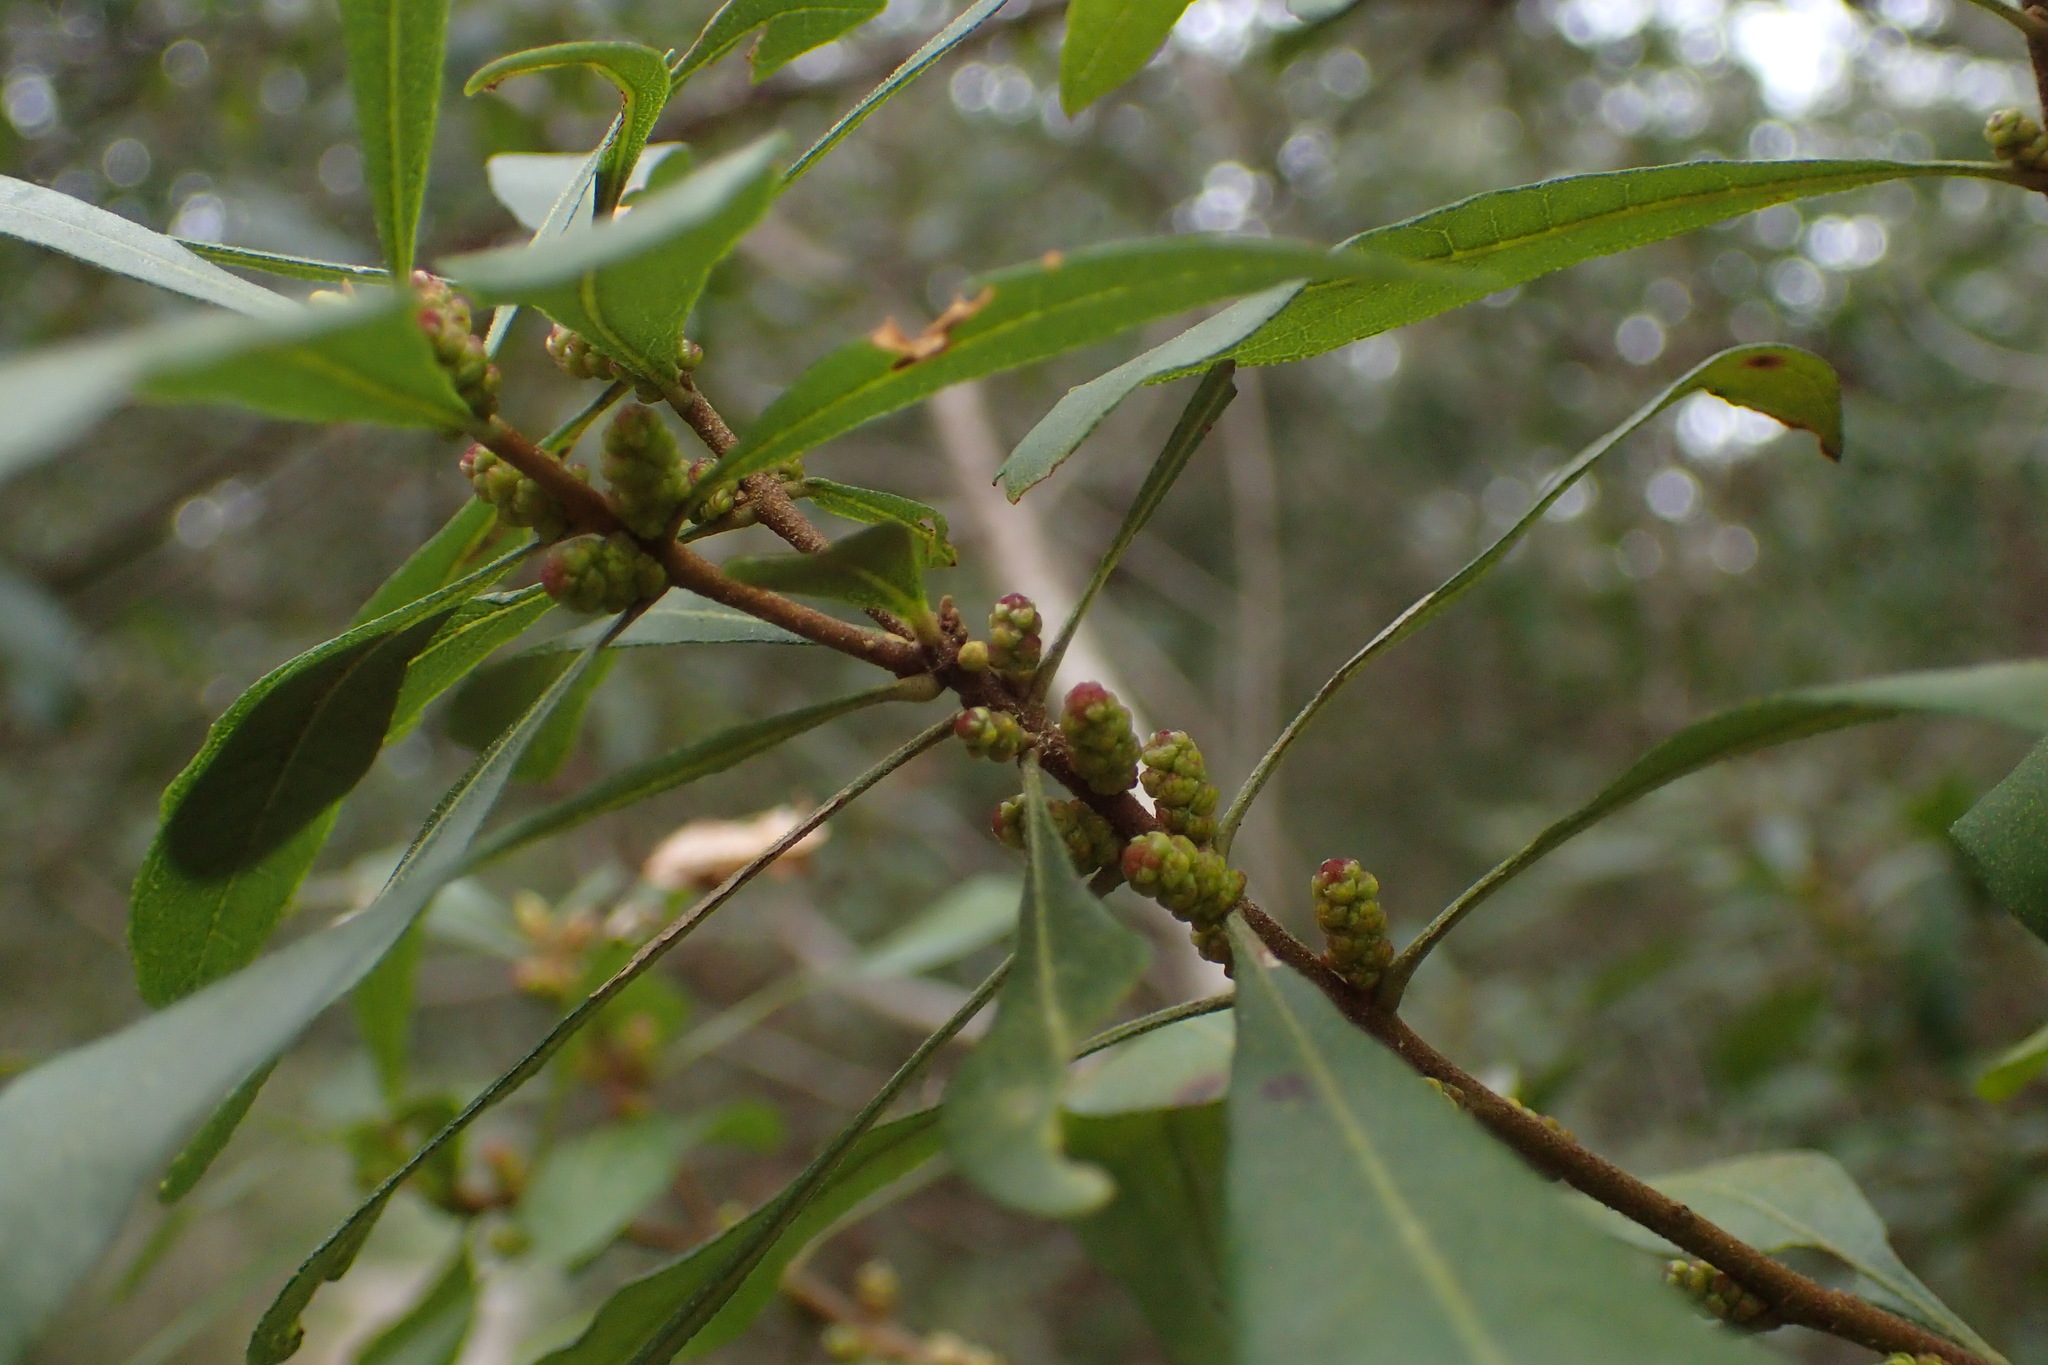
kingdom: Plantae
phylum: Tracheophyta
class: Magnoliopsida
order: Fagales
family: Myricaceae
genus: Morella
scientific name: Morella cerifera
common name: Wax myrtle
